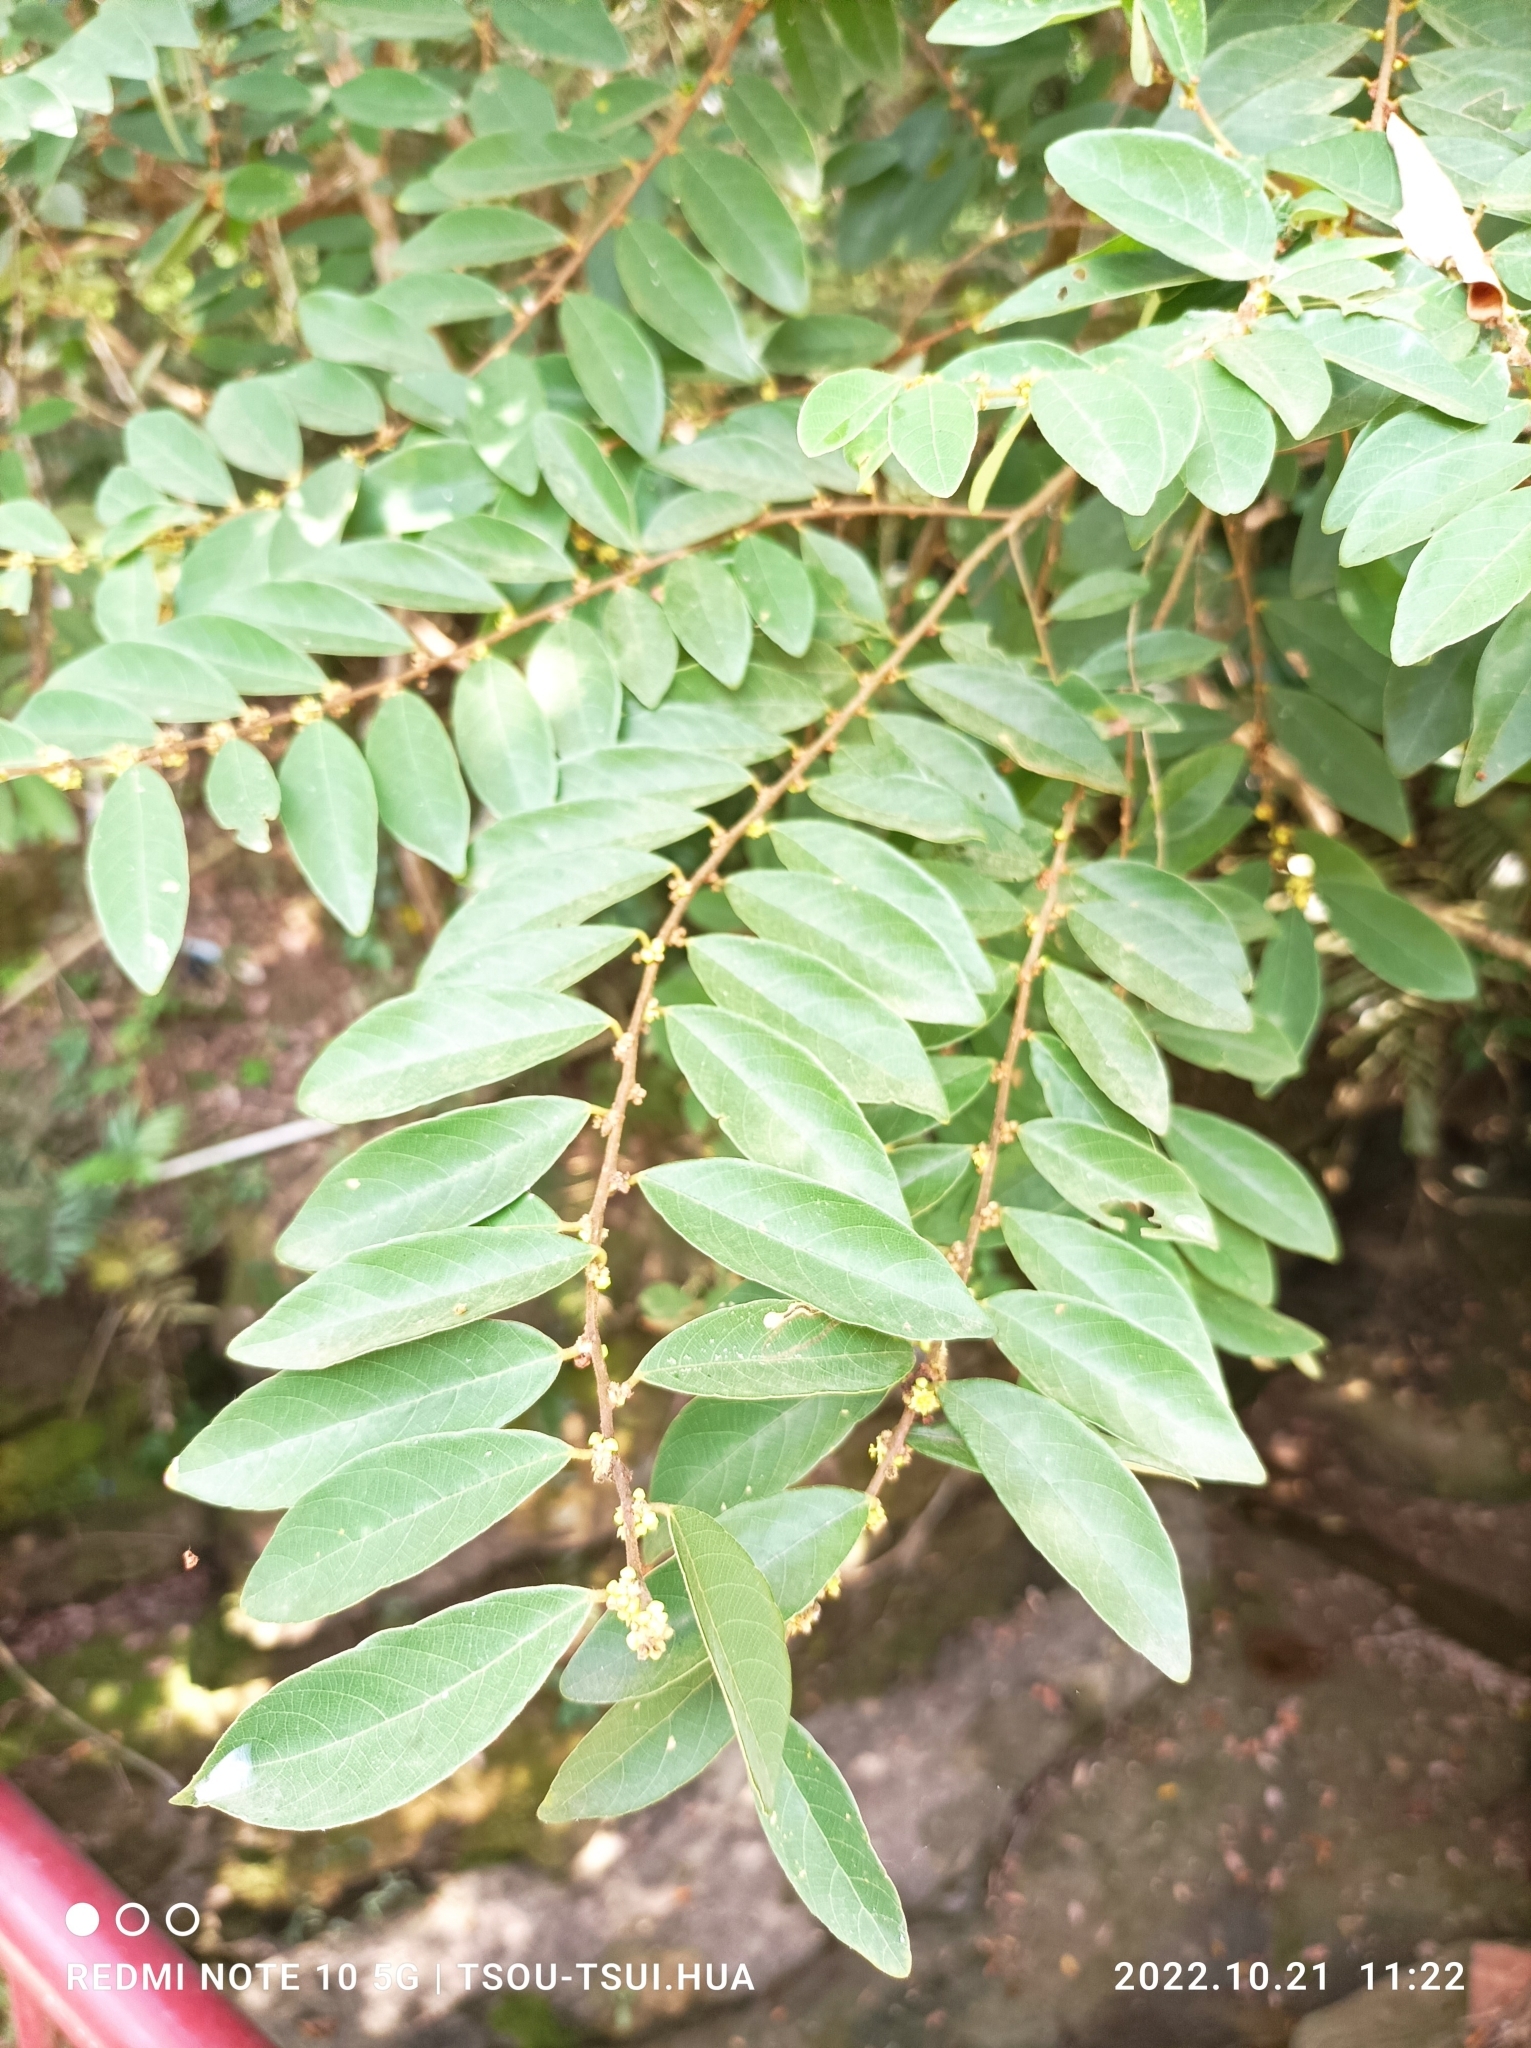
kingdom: Plantae
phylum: Tracheophyta
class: Magnoliopsida
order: Malpighiales
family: Phyllanthaceae
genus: Bridelia
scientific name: Bridelia tomentosa
